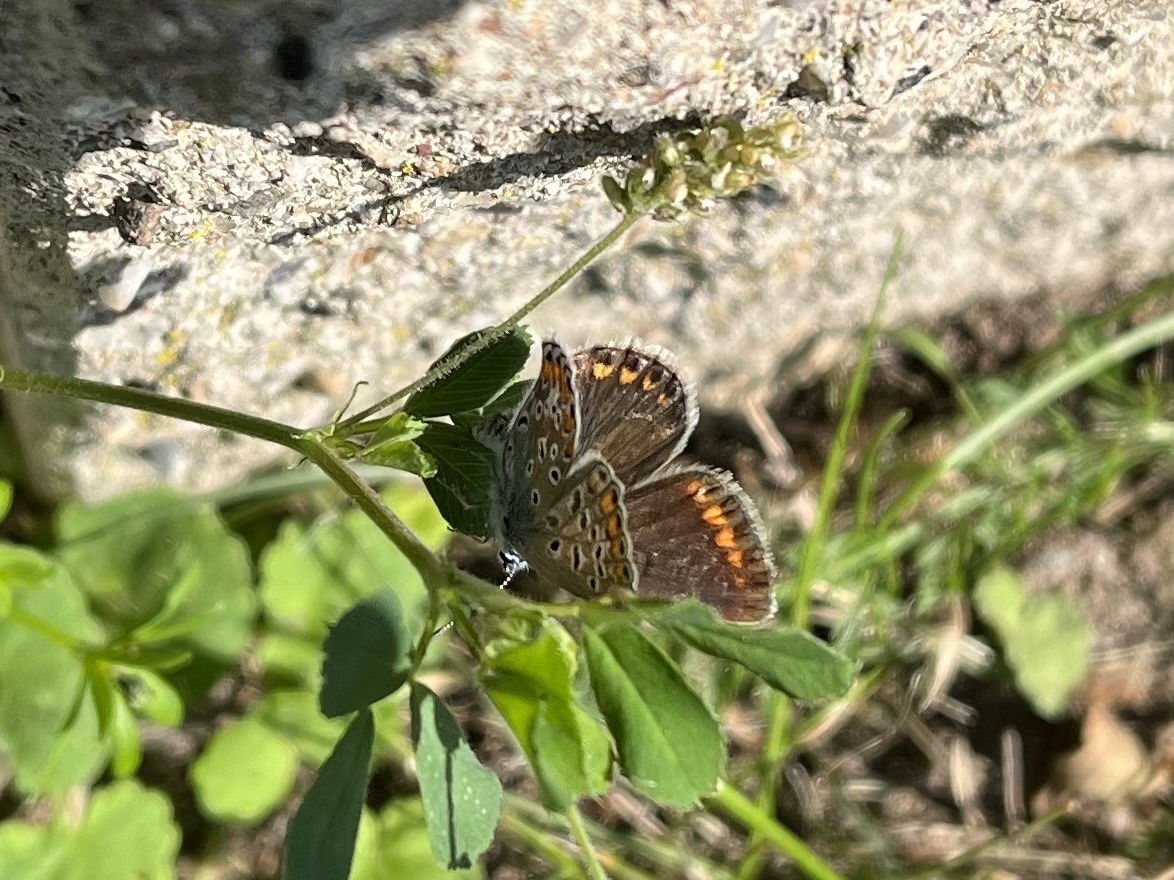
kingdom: Animalia
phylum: Arthropoda
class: Insecta
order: Lepidoptera
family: Lycaenidae
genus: Polyommatus
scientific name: Polyommatus icarus
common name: Common blue
